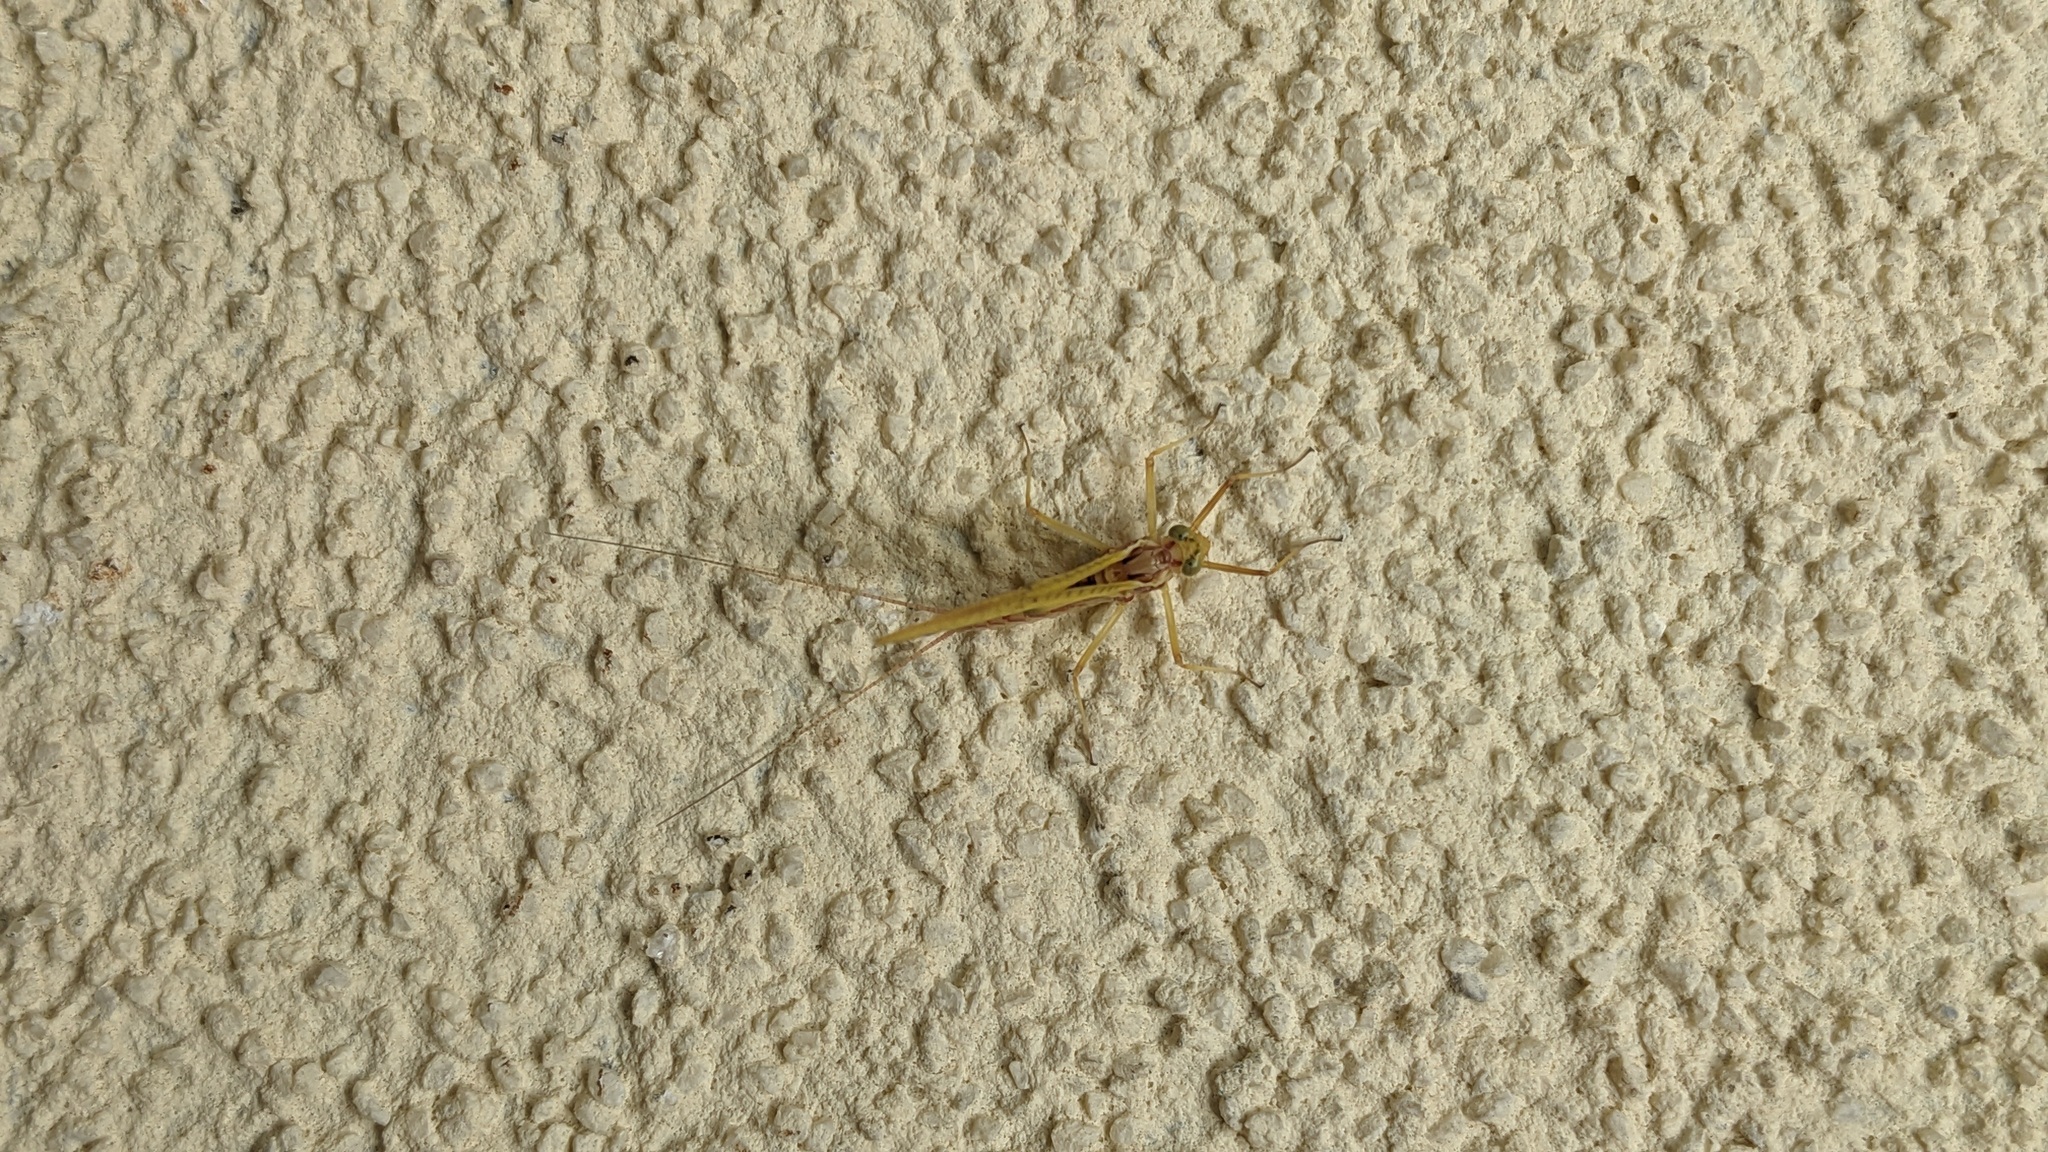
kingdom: Animalia
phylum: Arthropoda
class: Insecta
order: Ephemeroptera
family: Heptageniidae
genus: Heptagenia
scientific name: Heptagenia flava
